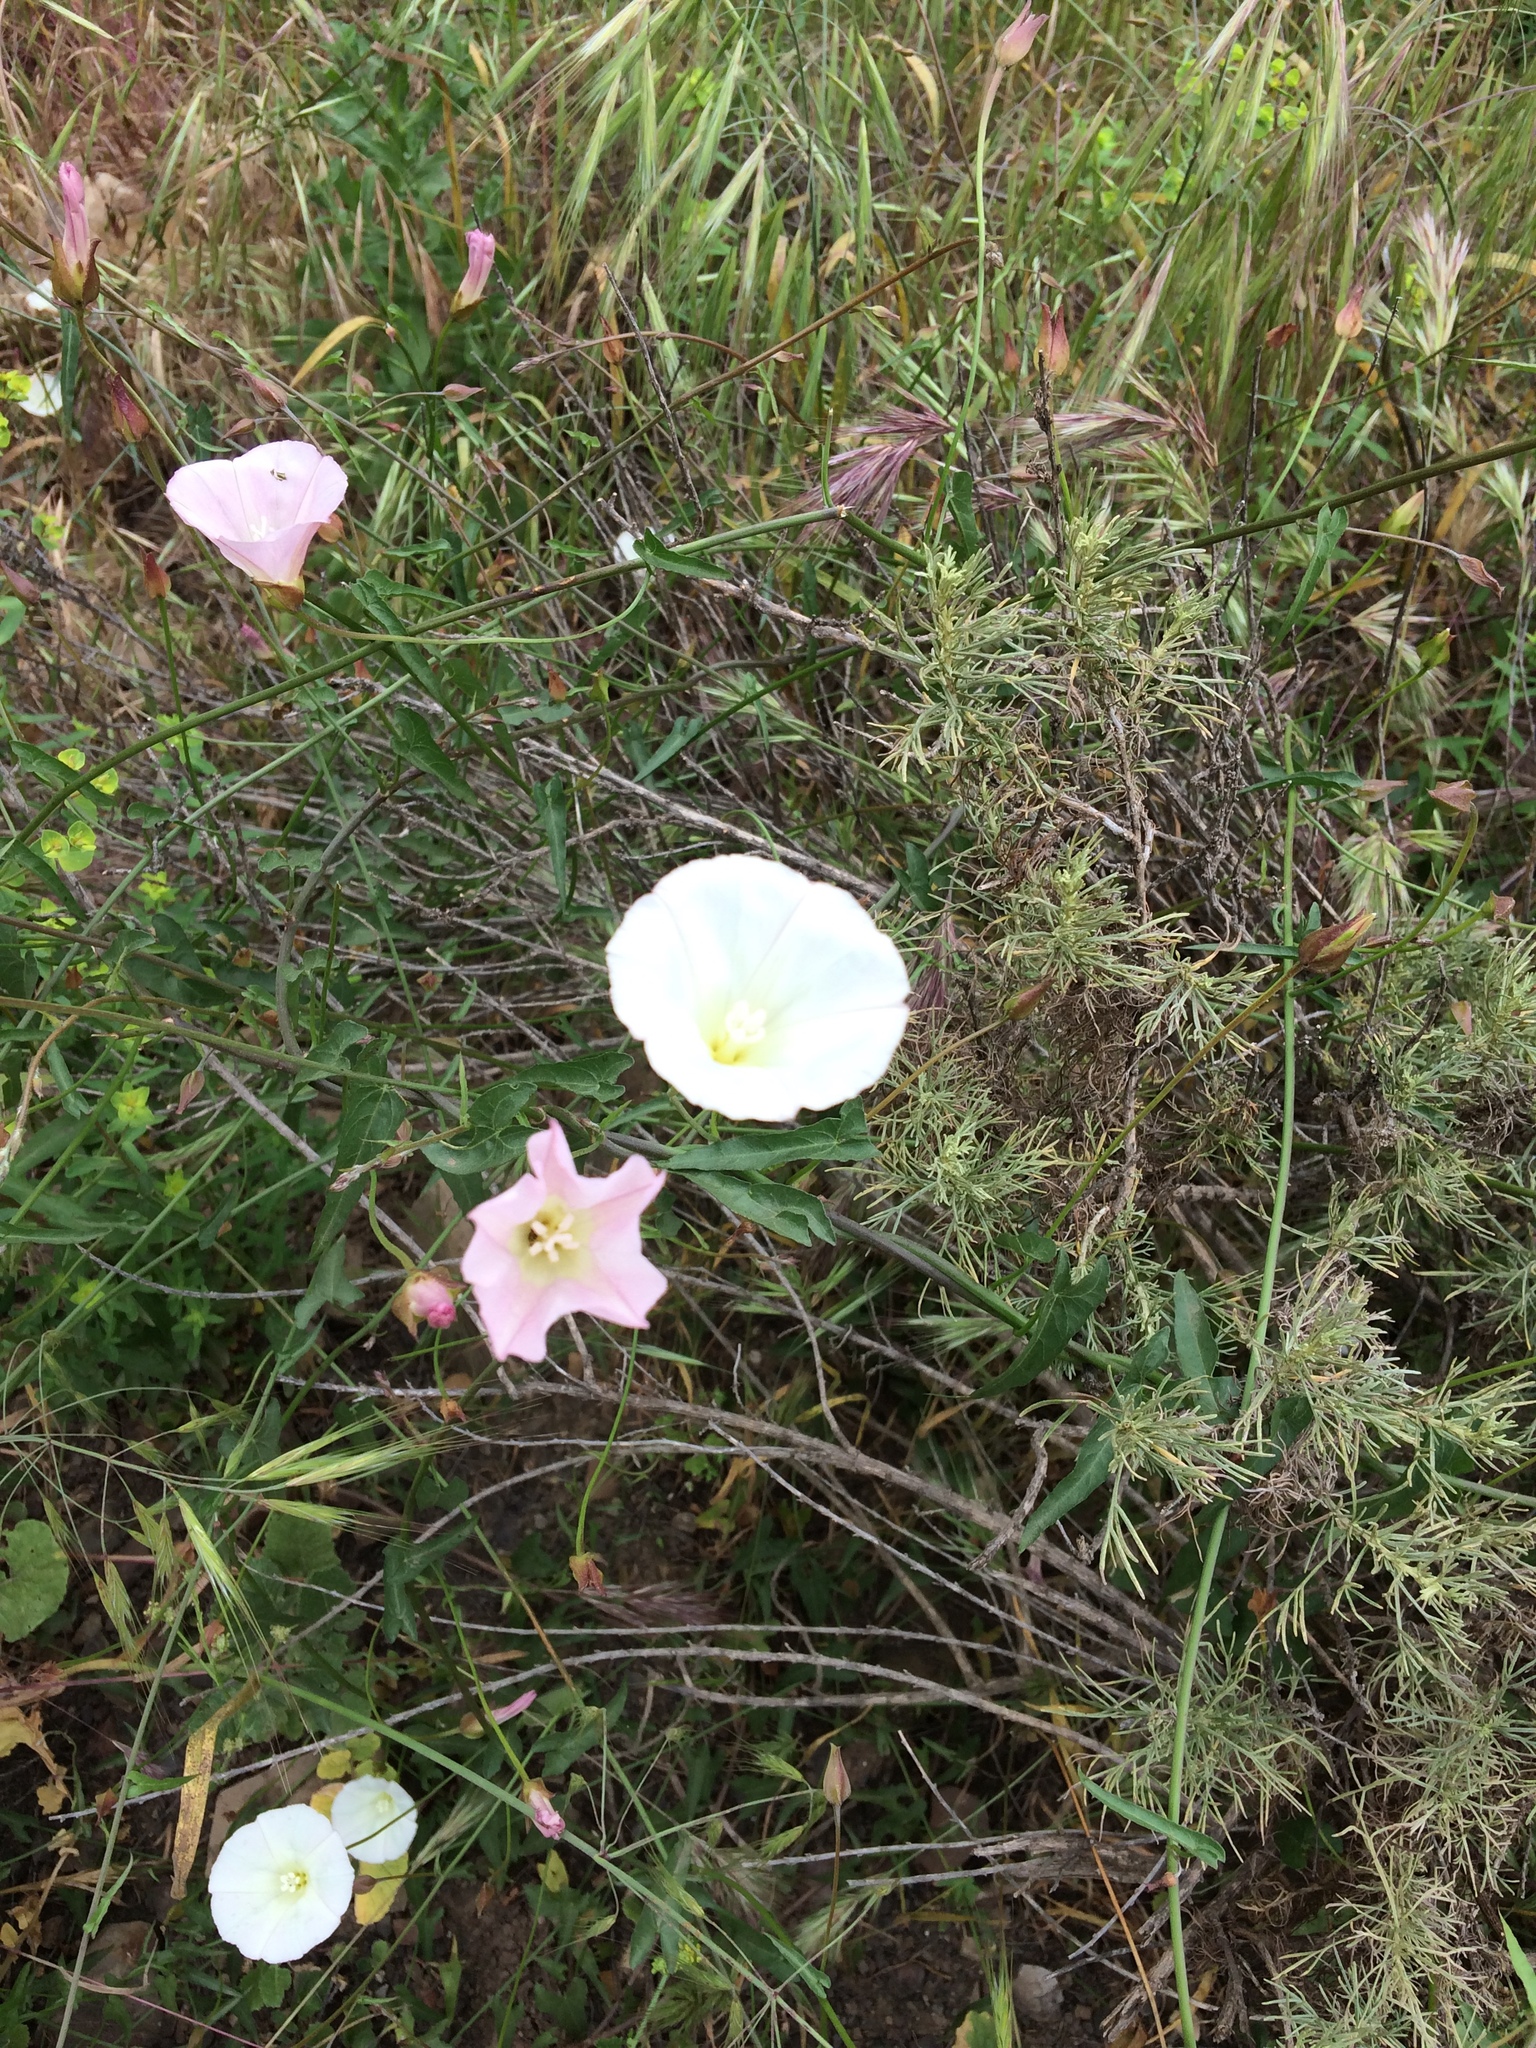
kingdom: Plantae
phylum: Tracheophyta
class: Magnoliopsida
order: Solanales
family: Convolvulaceae
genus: Calystegia
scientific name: Calystegia macrostegia
